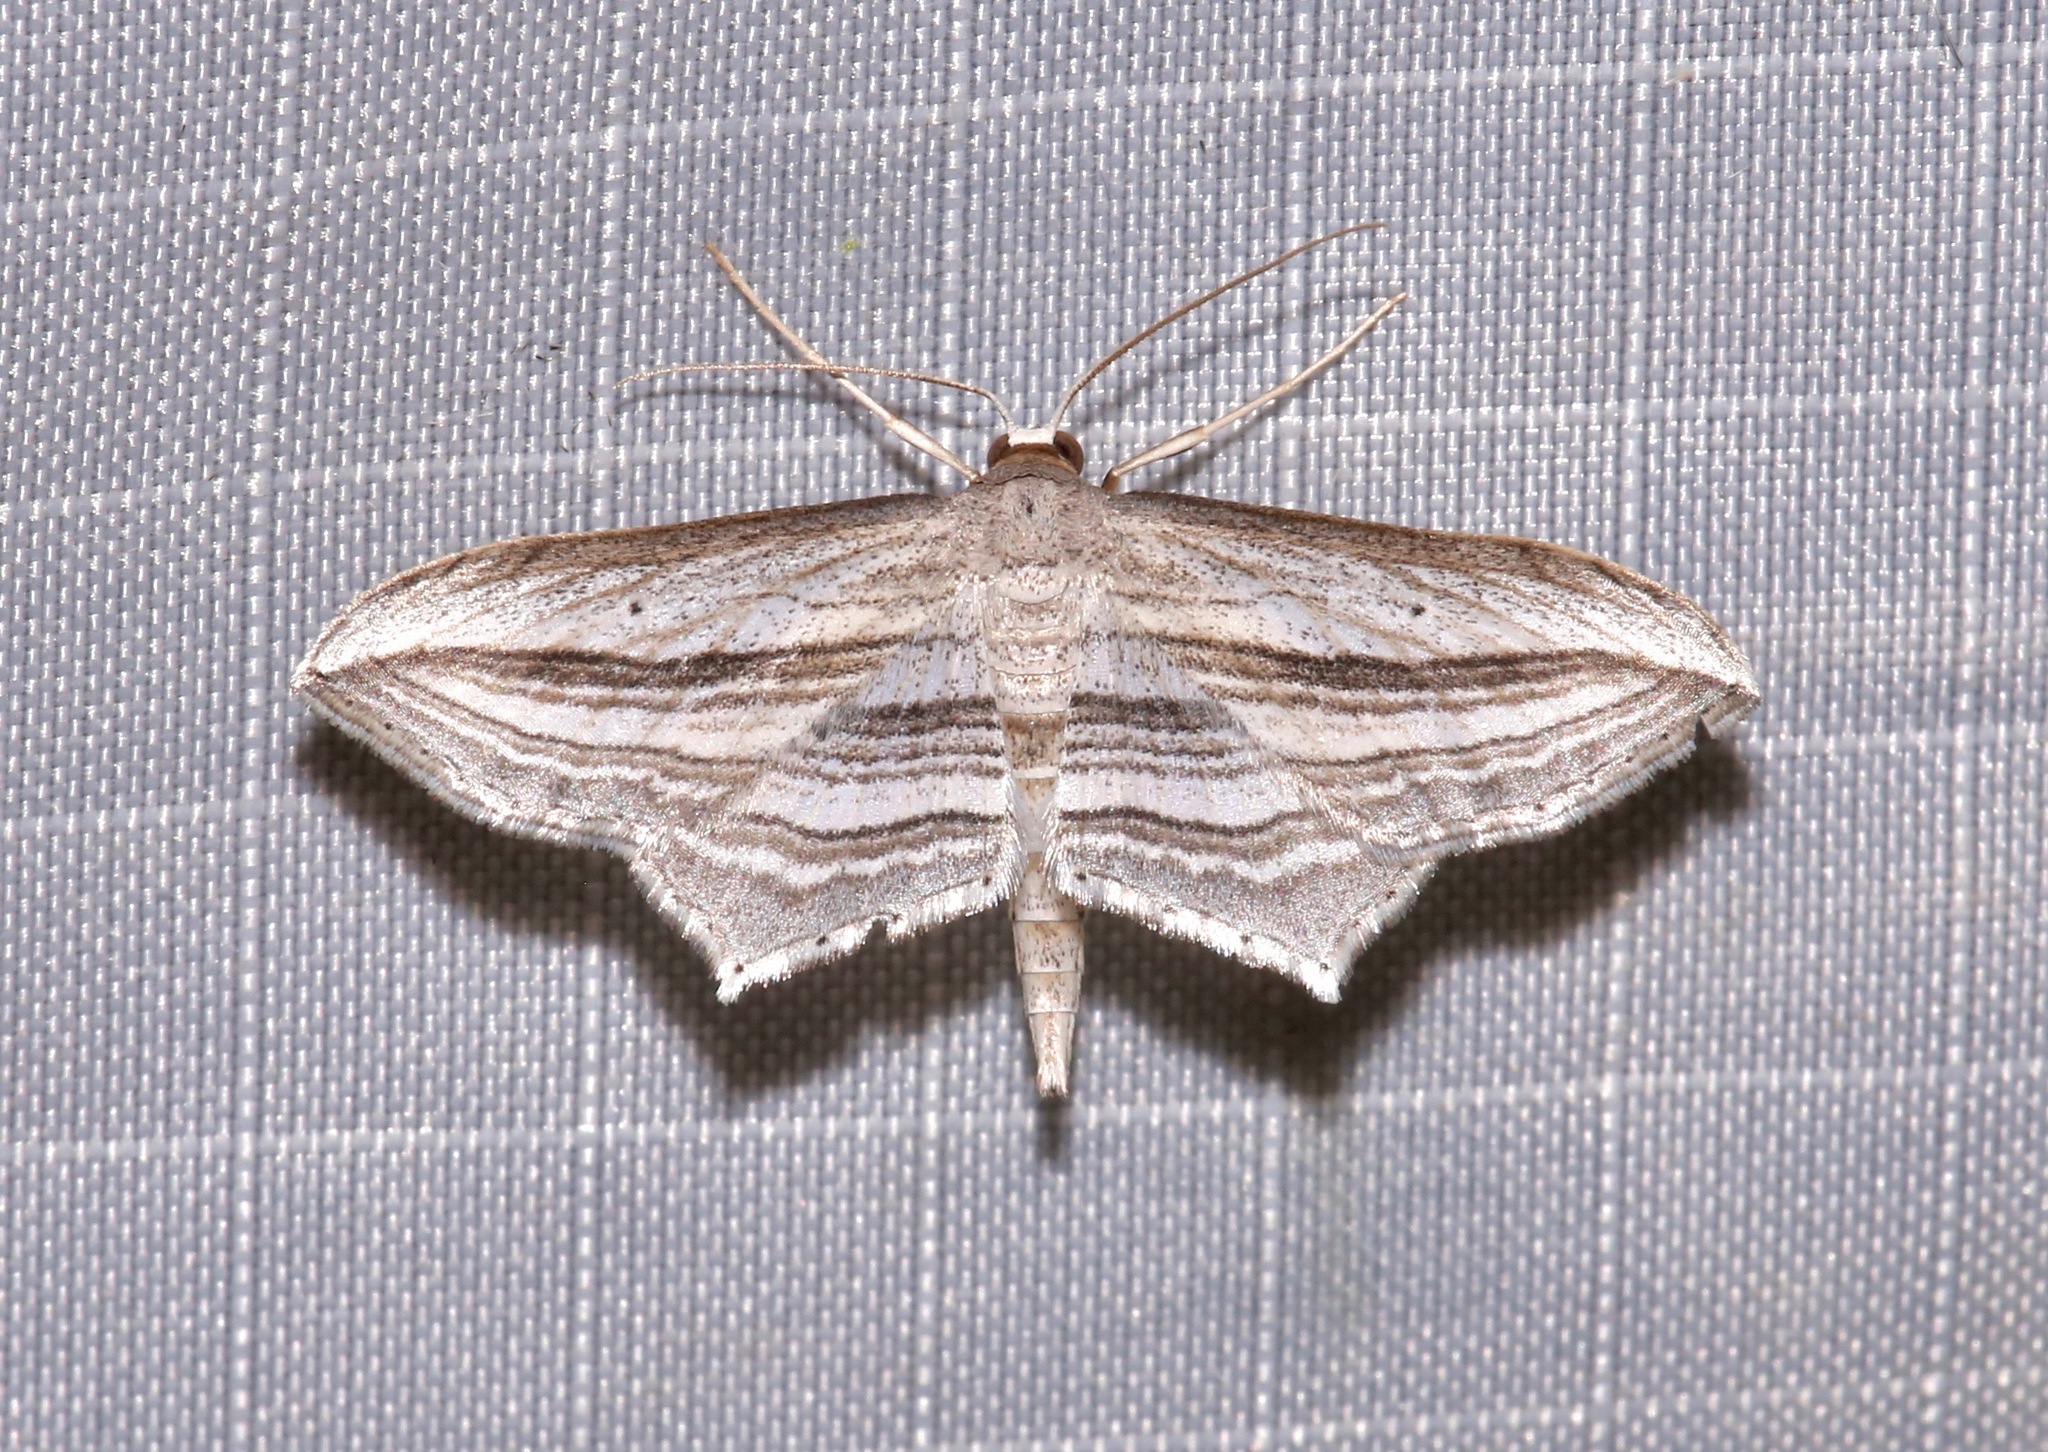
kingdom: Animalia
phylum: Arthropoda
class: Insecta
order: Lepidoptera
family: Geometridae
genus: Arcobara
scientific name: Arcobara multilineata
